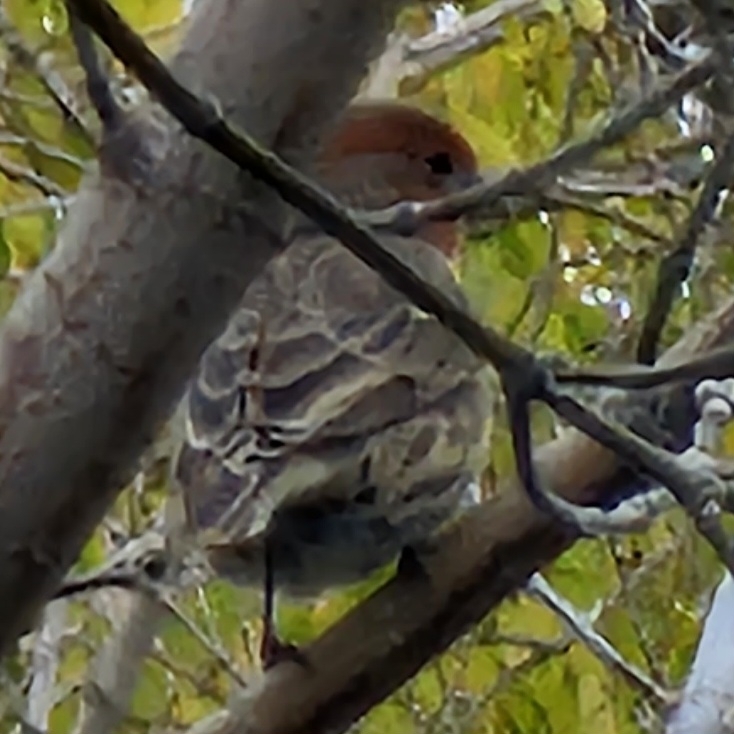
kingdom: Animalia
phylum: Chordata
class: Aves
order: Passeriformes
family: Fringillidae
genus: Haemorhous
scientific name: Haemorhous mexicanus
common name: House finch
